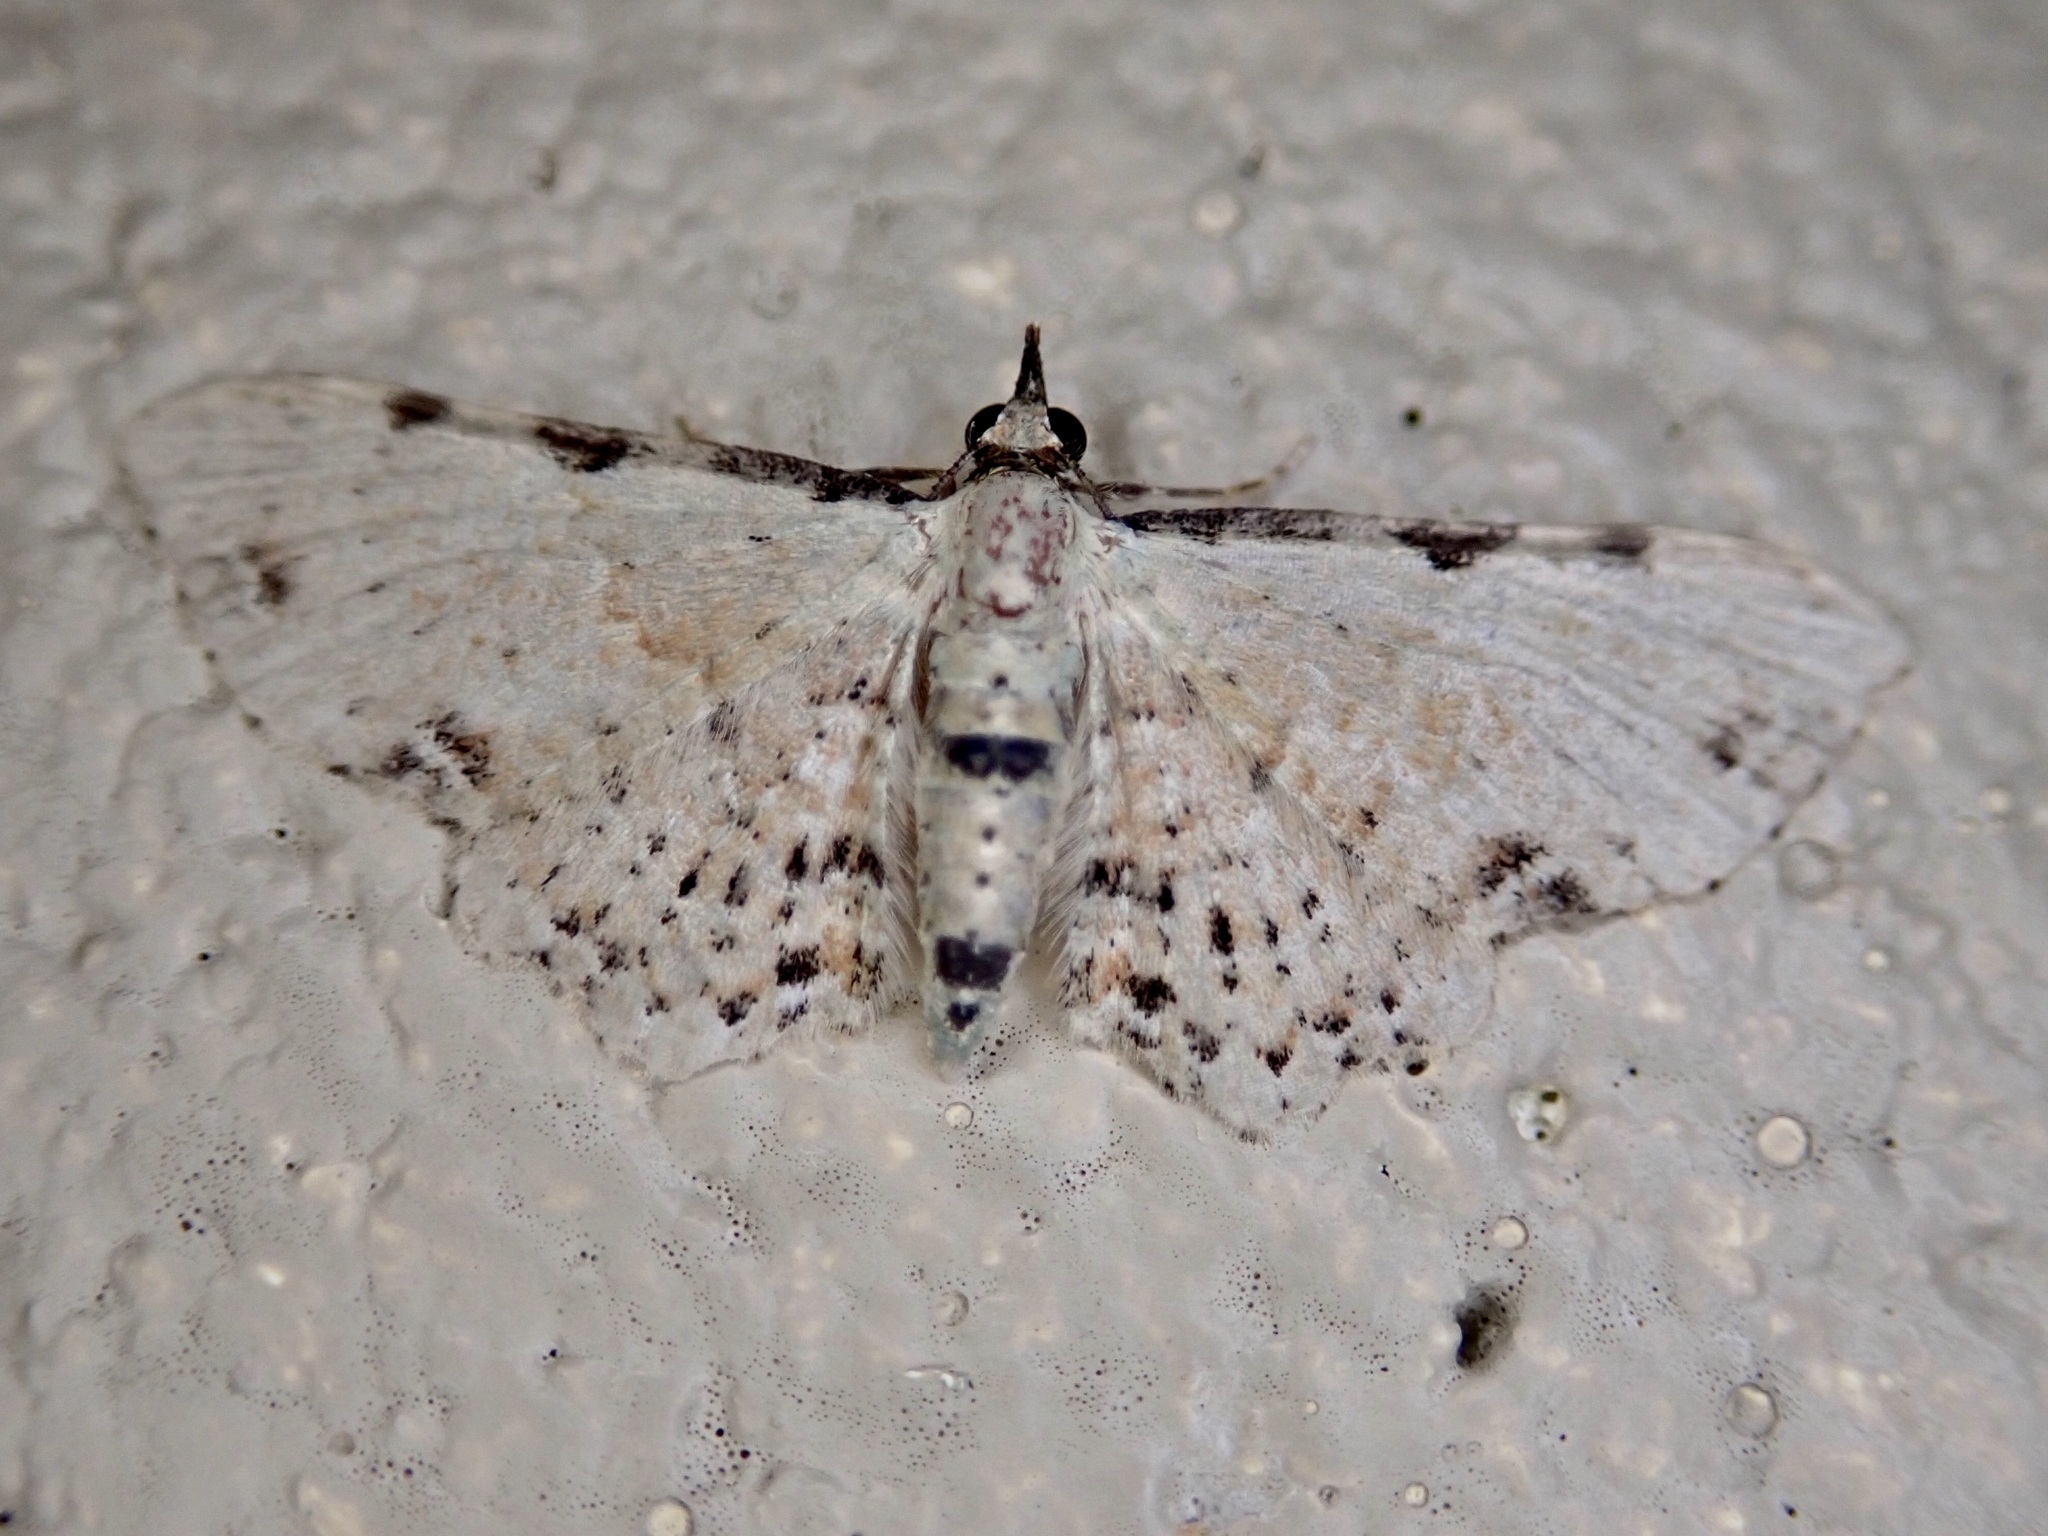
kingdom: Animalia
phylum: Arthropoda
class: Insecta
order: Lepidoptera
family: Geometridae
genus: Pasiphila
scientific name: Pasiphila fumipalpata
